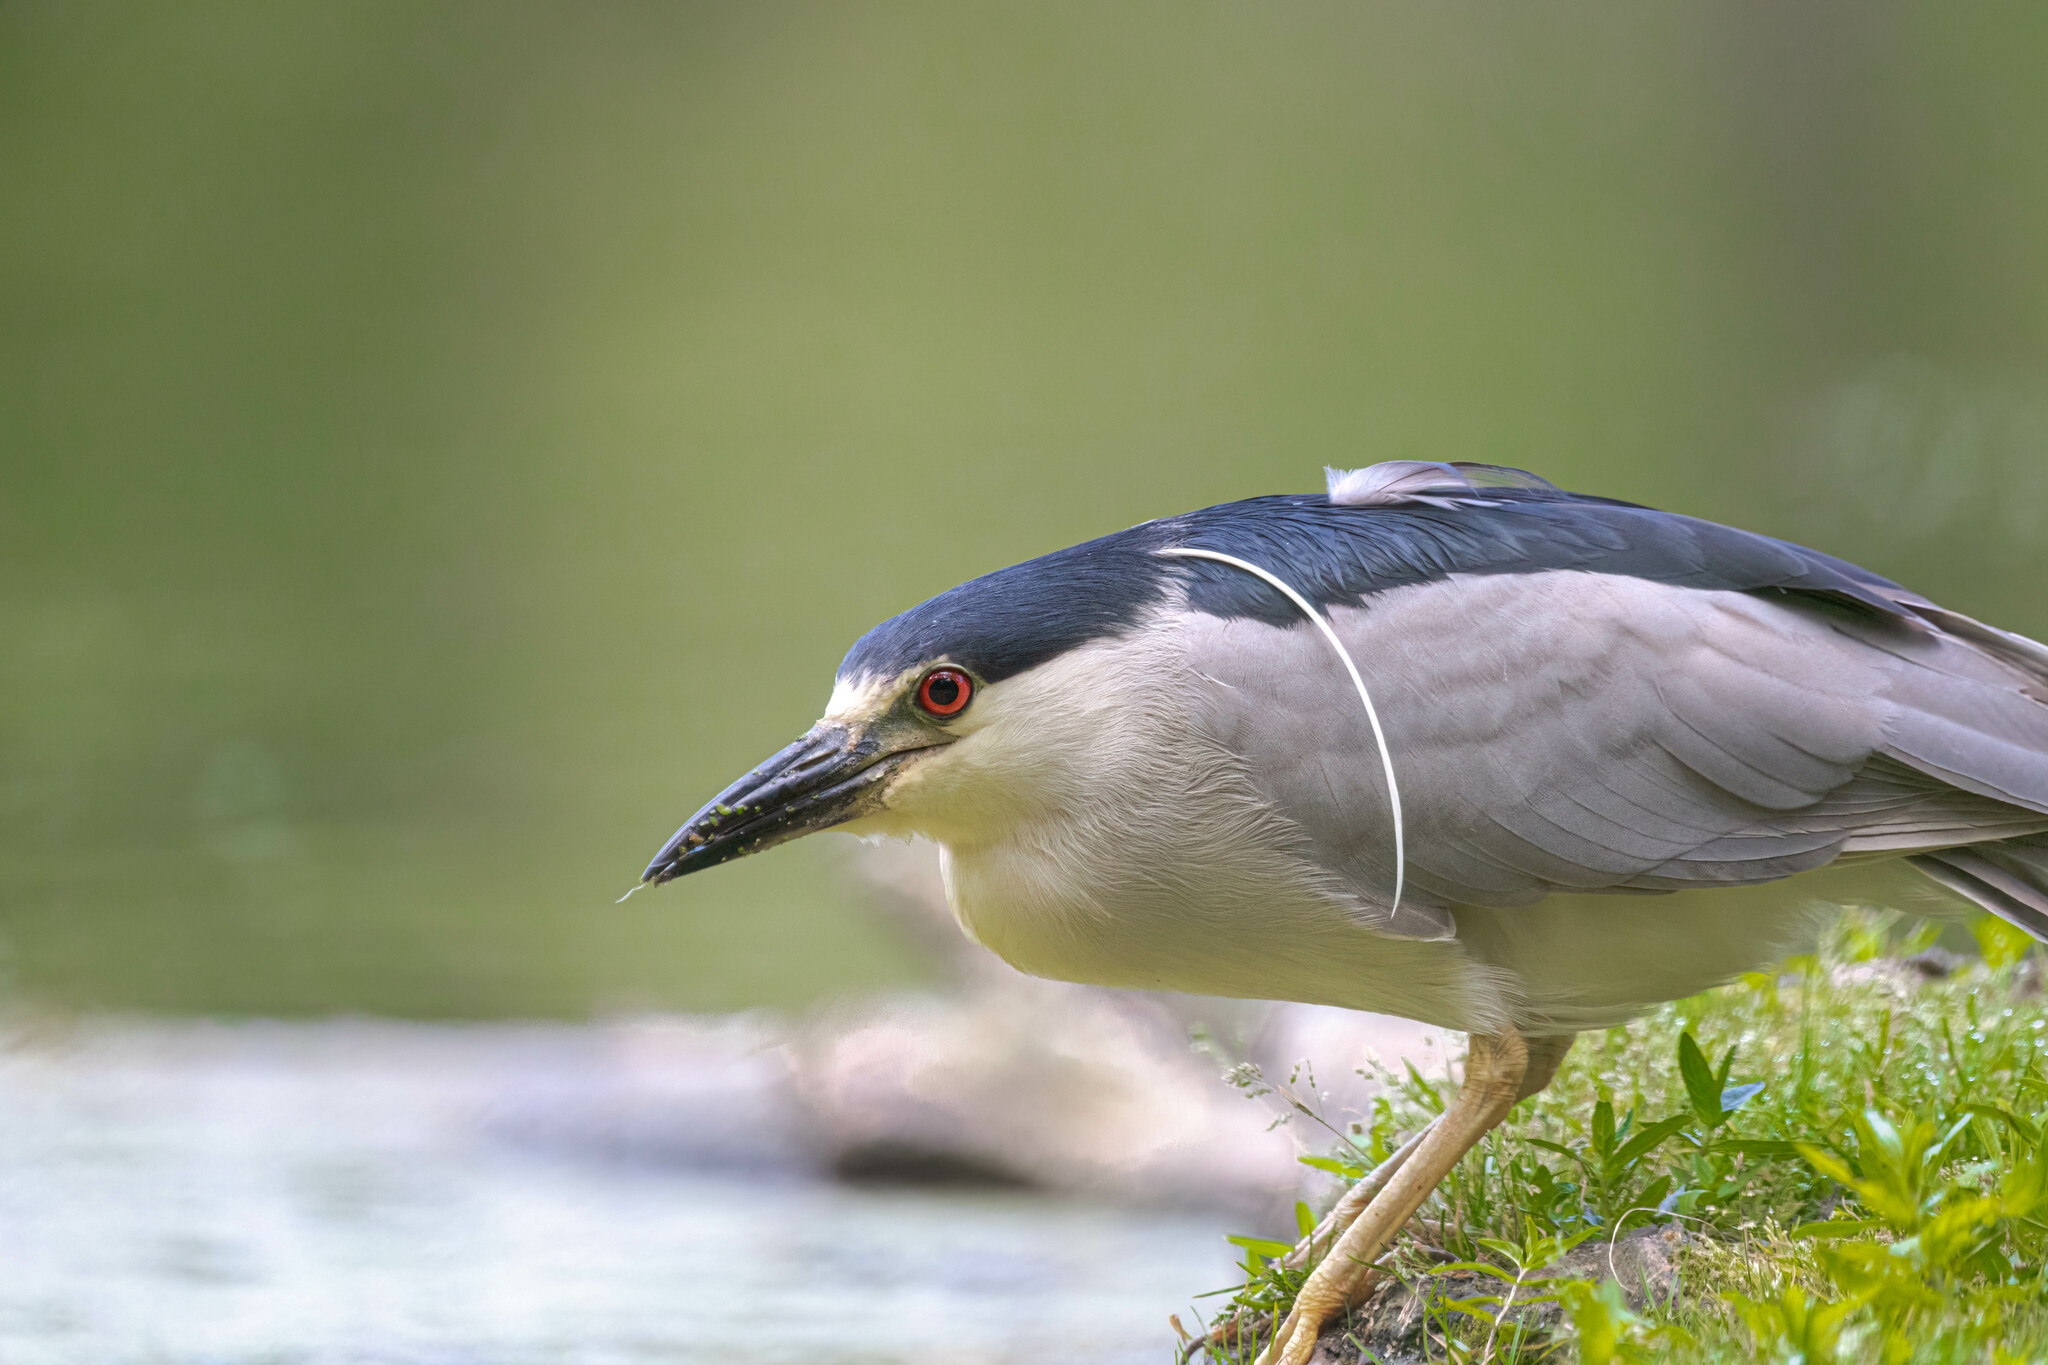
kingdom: Animalia
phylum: Chordata
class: Aves
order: Pelecaniformes
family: Ardeidae
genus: Nycticorax
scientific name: Nycticorax nycticorax
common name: Black-crowned night heron
